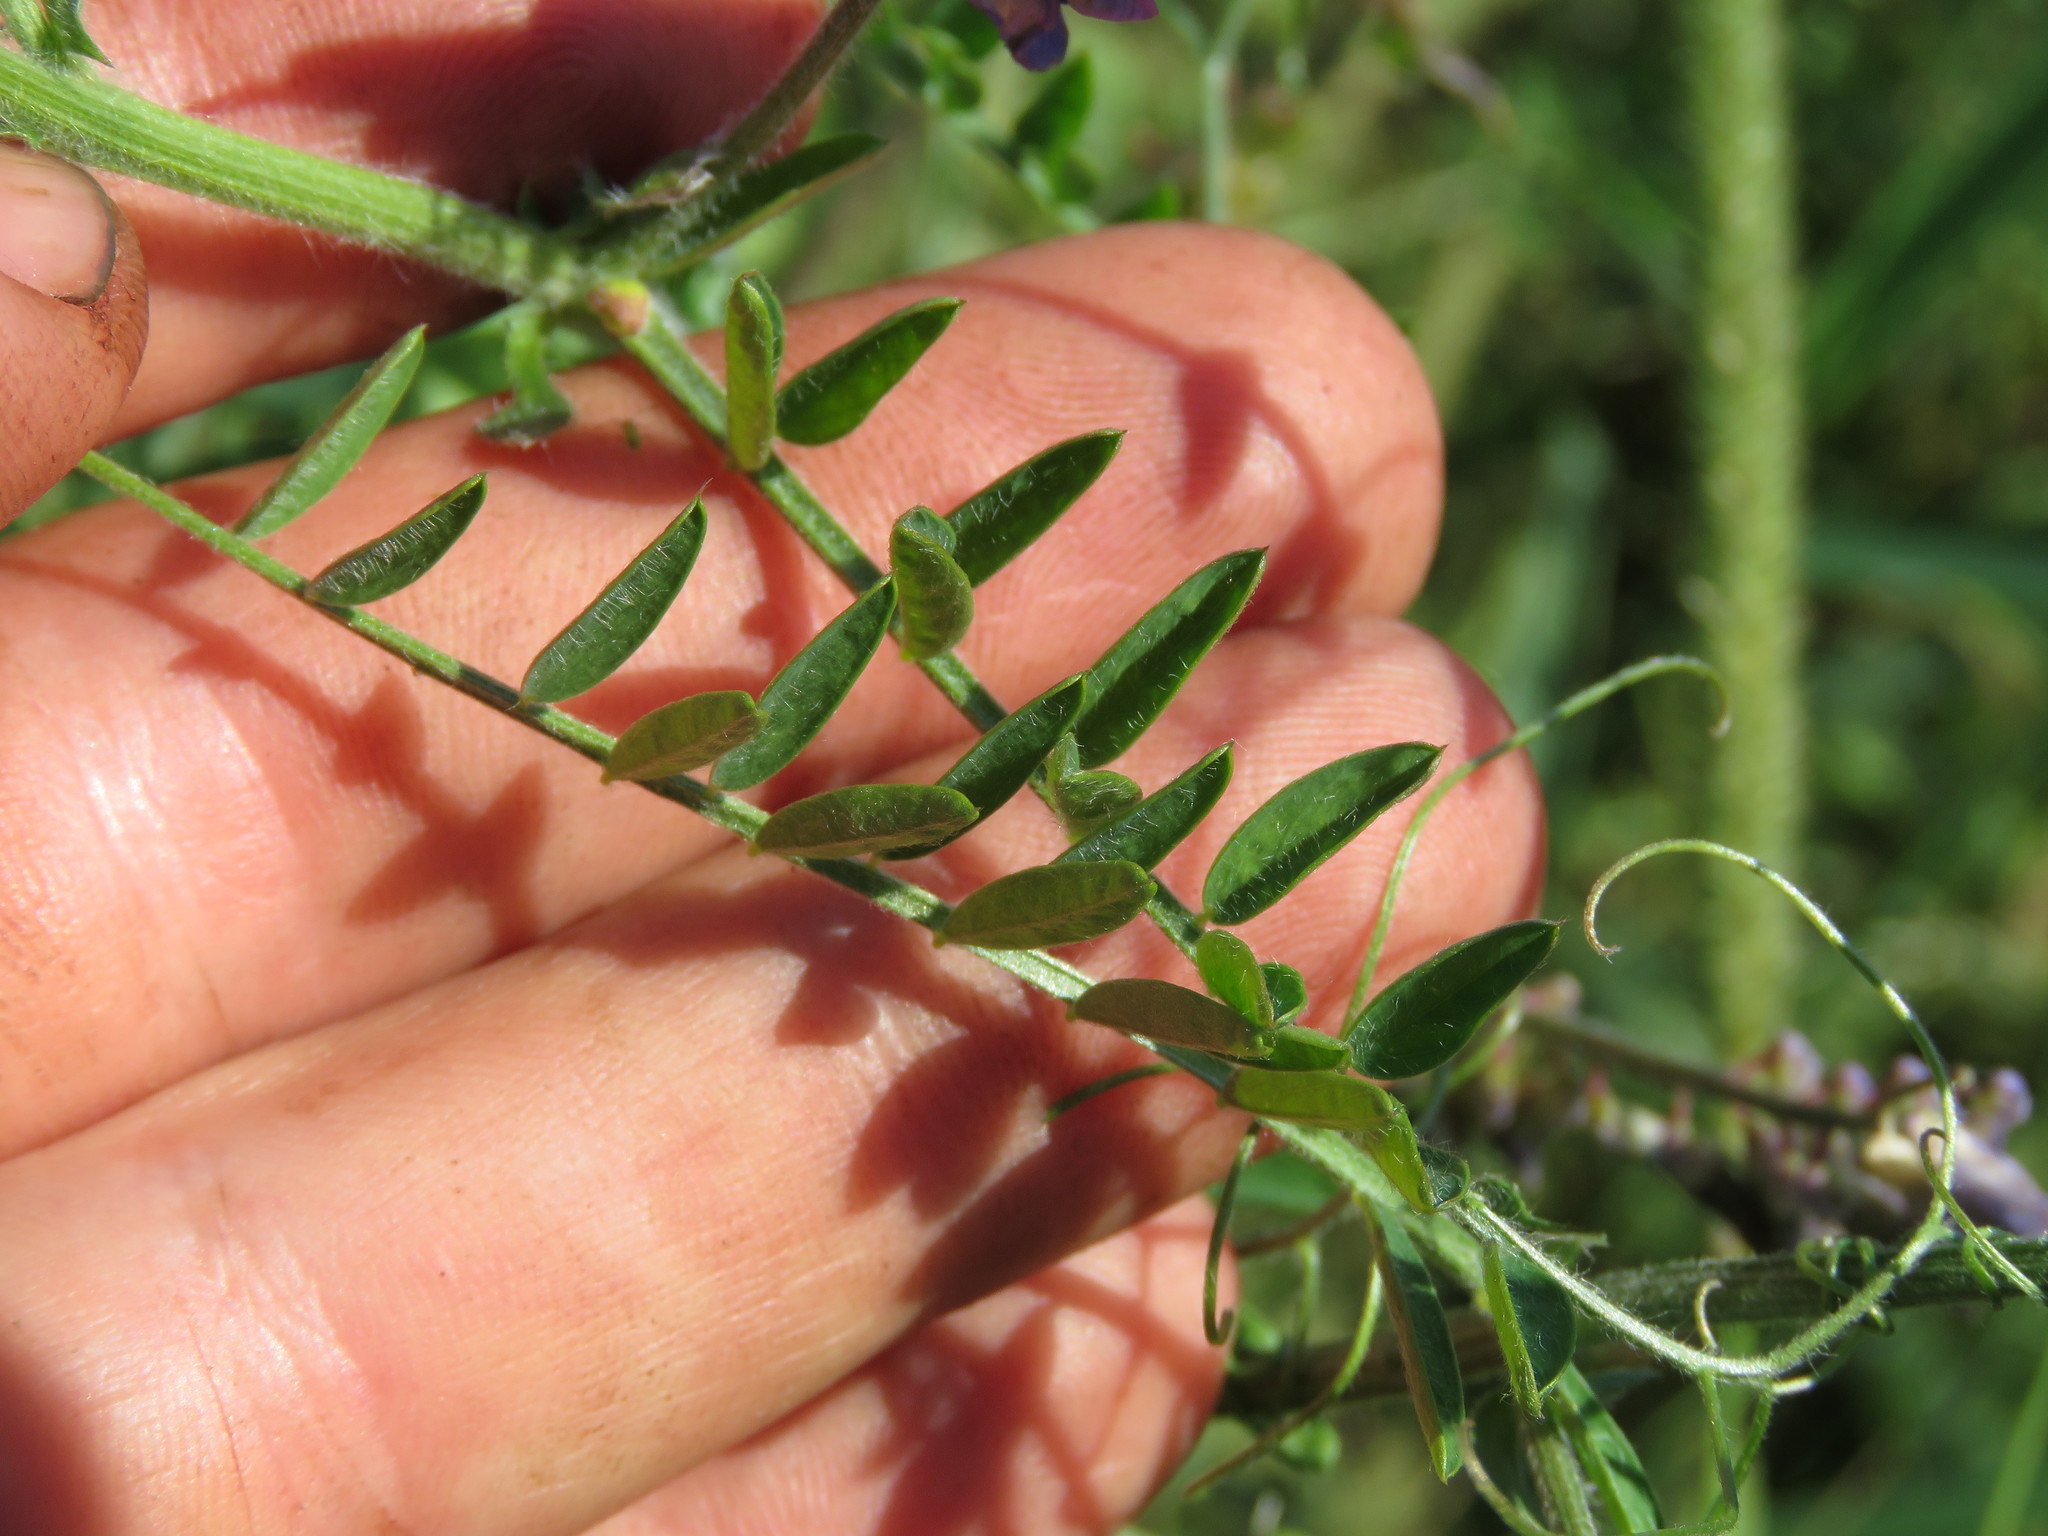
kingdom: Plantae
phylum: Tracheophyta
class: Magnoliopsida
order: Fabales
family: Fabaceae
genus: Vicia
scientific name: Vicia villosa
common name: Fodder vetch
